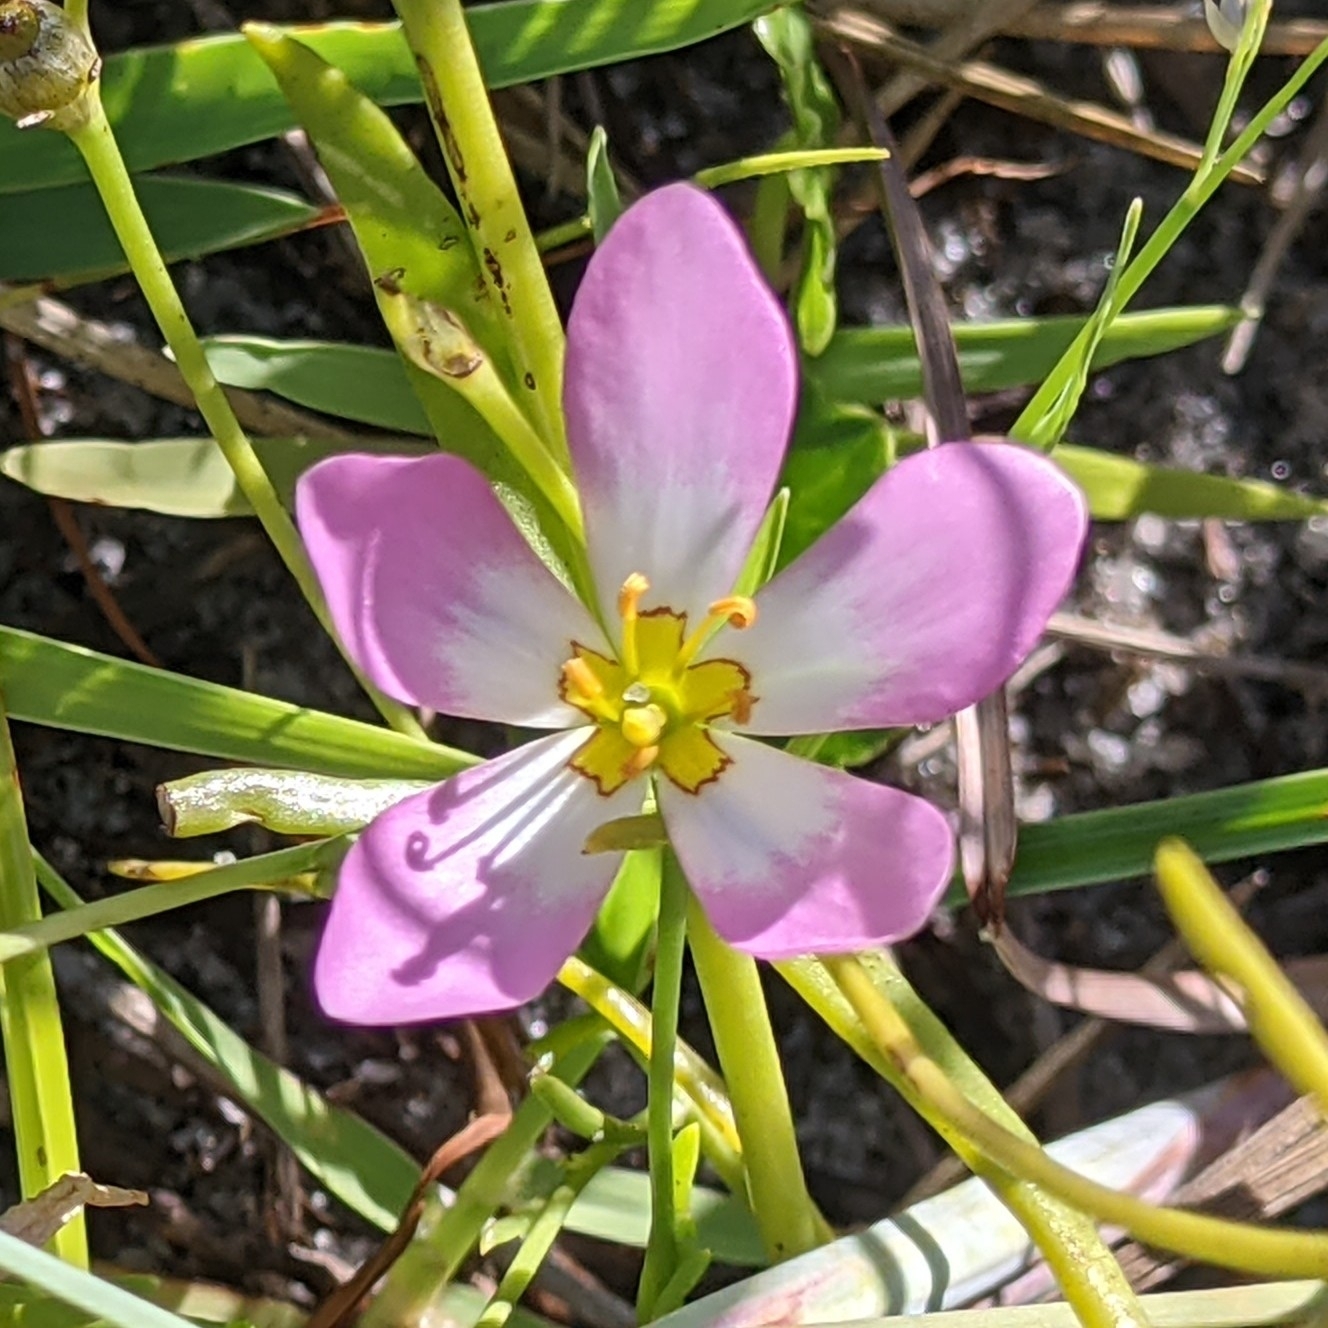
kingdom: Plantae
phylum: Tracheophyta
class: Magnoliopsida
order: Gentianales
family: Gentianaceae
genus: Sabatia
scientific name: Sabatia stellaris
